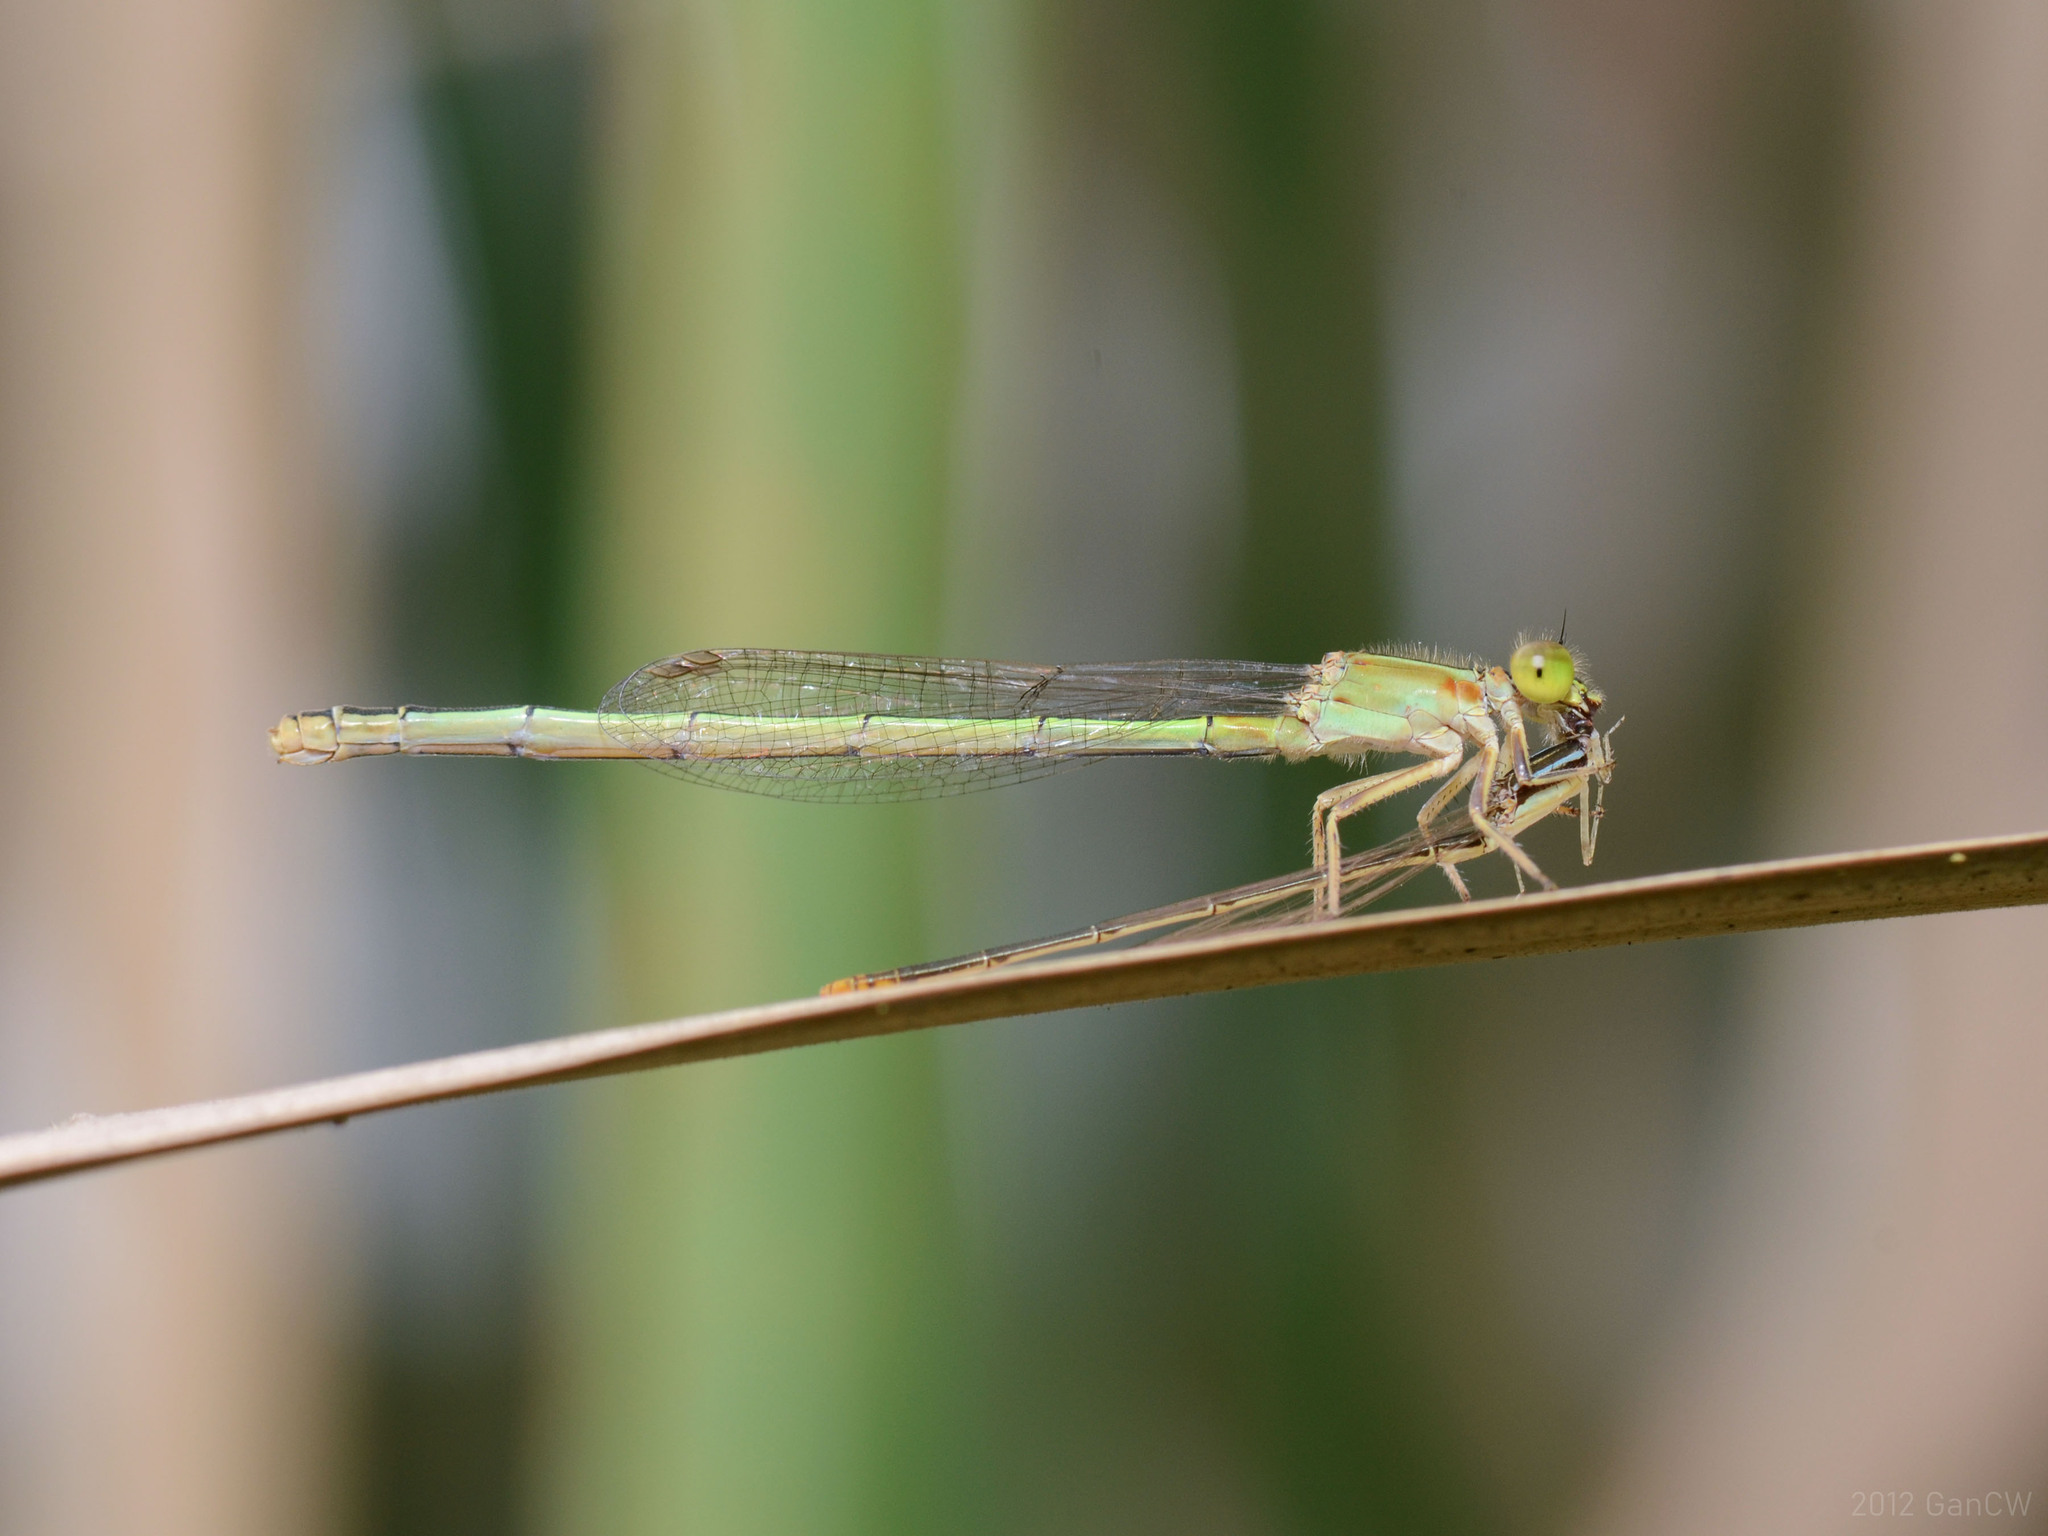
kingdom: Animalia
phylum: Arthropoda
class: Insecta
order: Odonata
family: Coenagrionidae
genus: Ischnura
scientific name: Ischnura senegalensis
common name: Tropical bluetail
